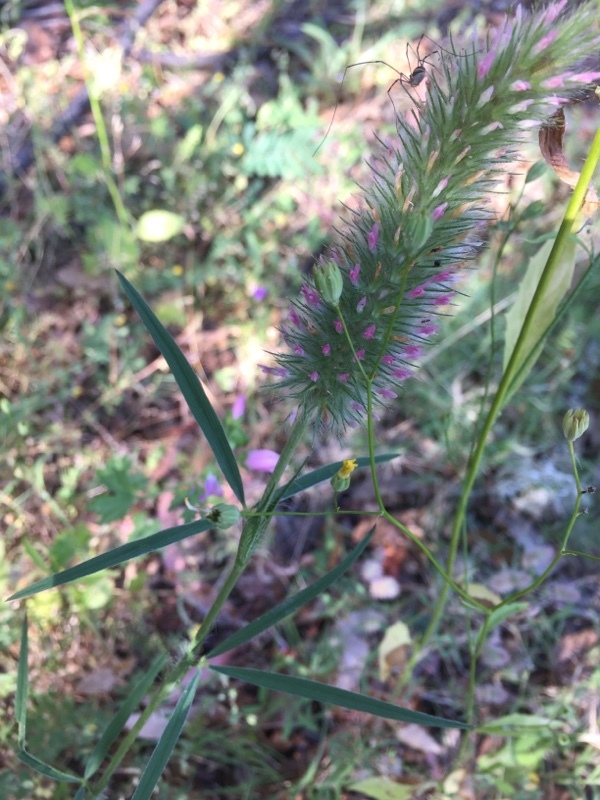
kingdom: Plantae
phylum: Tracheophyta
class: Magnoliopsida
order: Fabales
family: Fabaceae
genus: Trifolium
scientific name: Trifolium angustifolium
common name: Narrow clover
